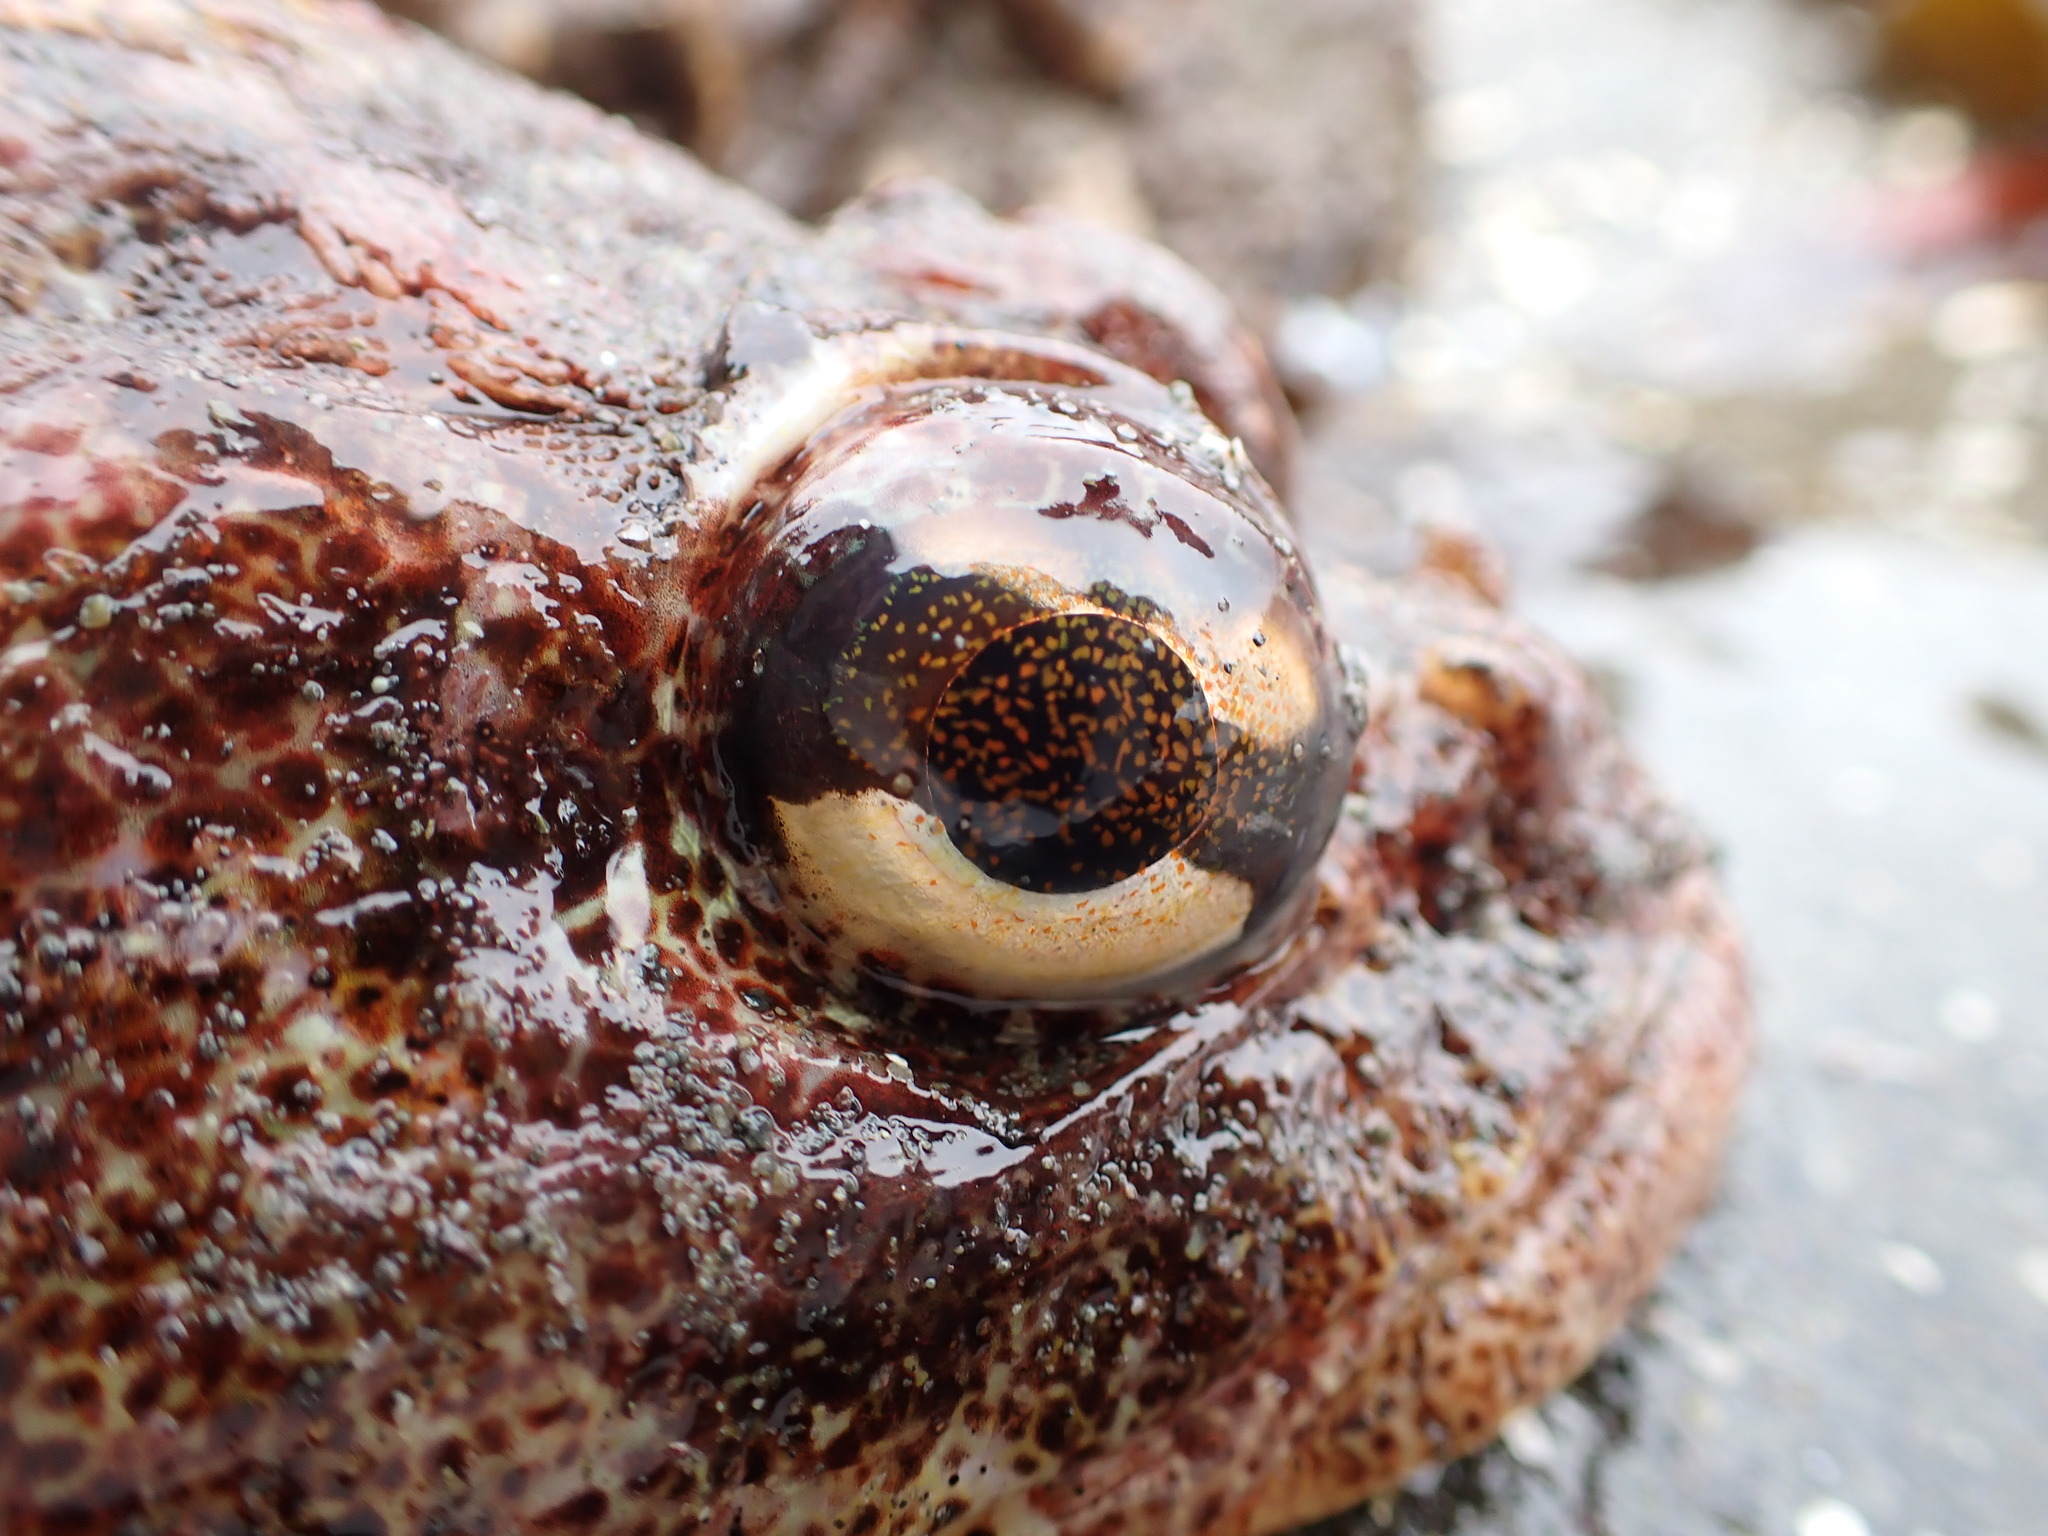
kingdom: Animalia
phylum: Chordata
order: Scorpaeniformes
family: Cottidae
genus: Hemilepidotus
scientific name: Hemilepidotus hemilepidotus
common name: Red irish lord
